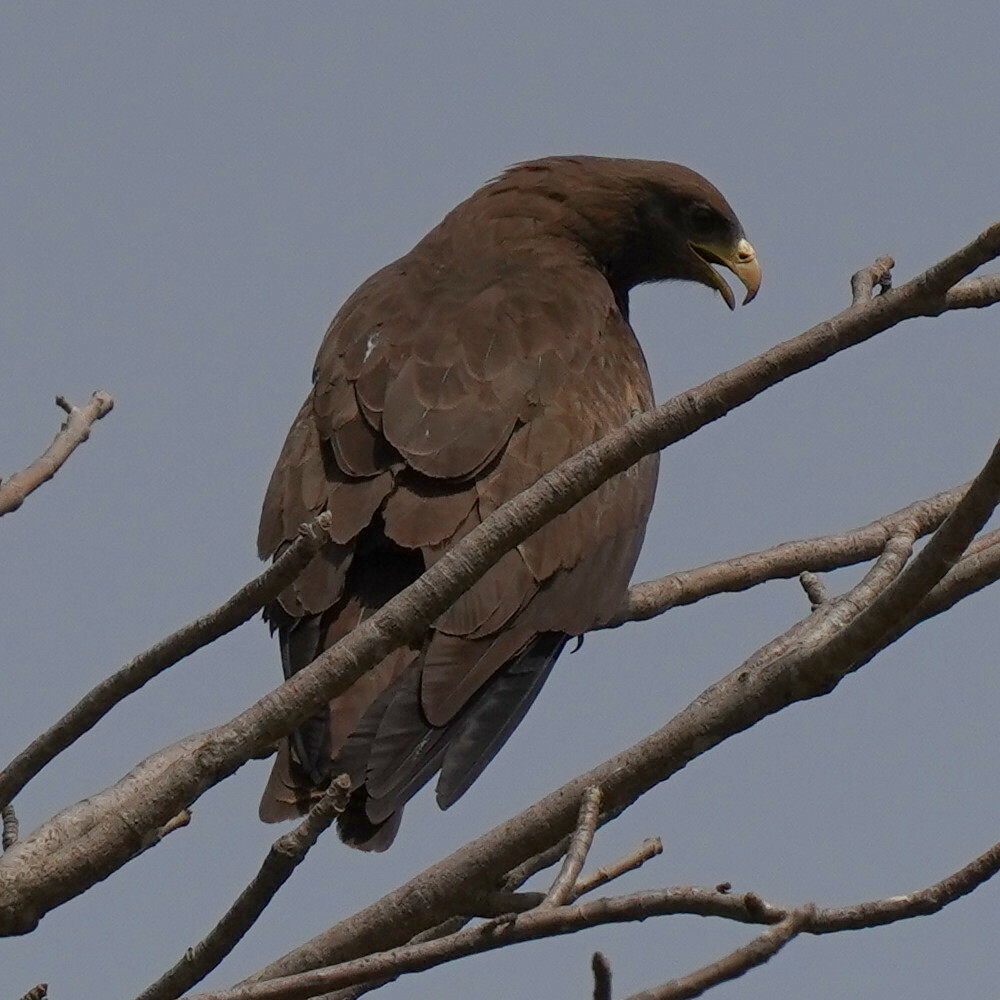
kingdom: Animalia
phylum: Chordata
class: Aves
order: Accipitriformes
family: Accipitridae
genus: Milvus
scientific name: Milvus migrans
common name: Black kite
